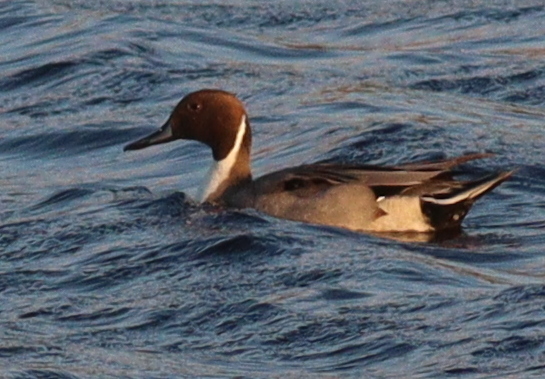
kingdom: Animalia
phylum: Chordata
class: Aves
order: Anseriformes
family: Anatidae
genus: Anas
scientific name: Anas acuta
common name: Northern pintail
